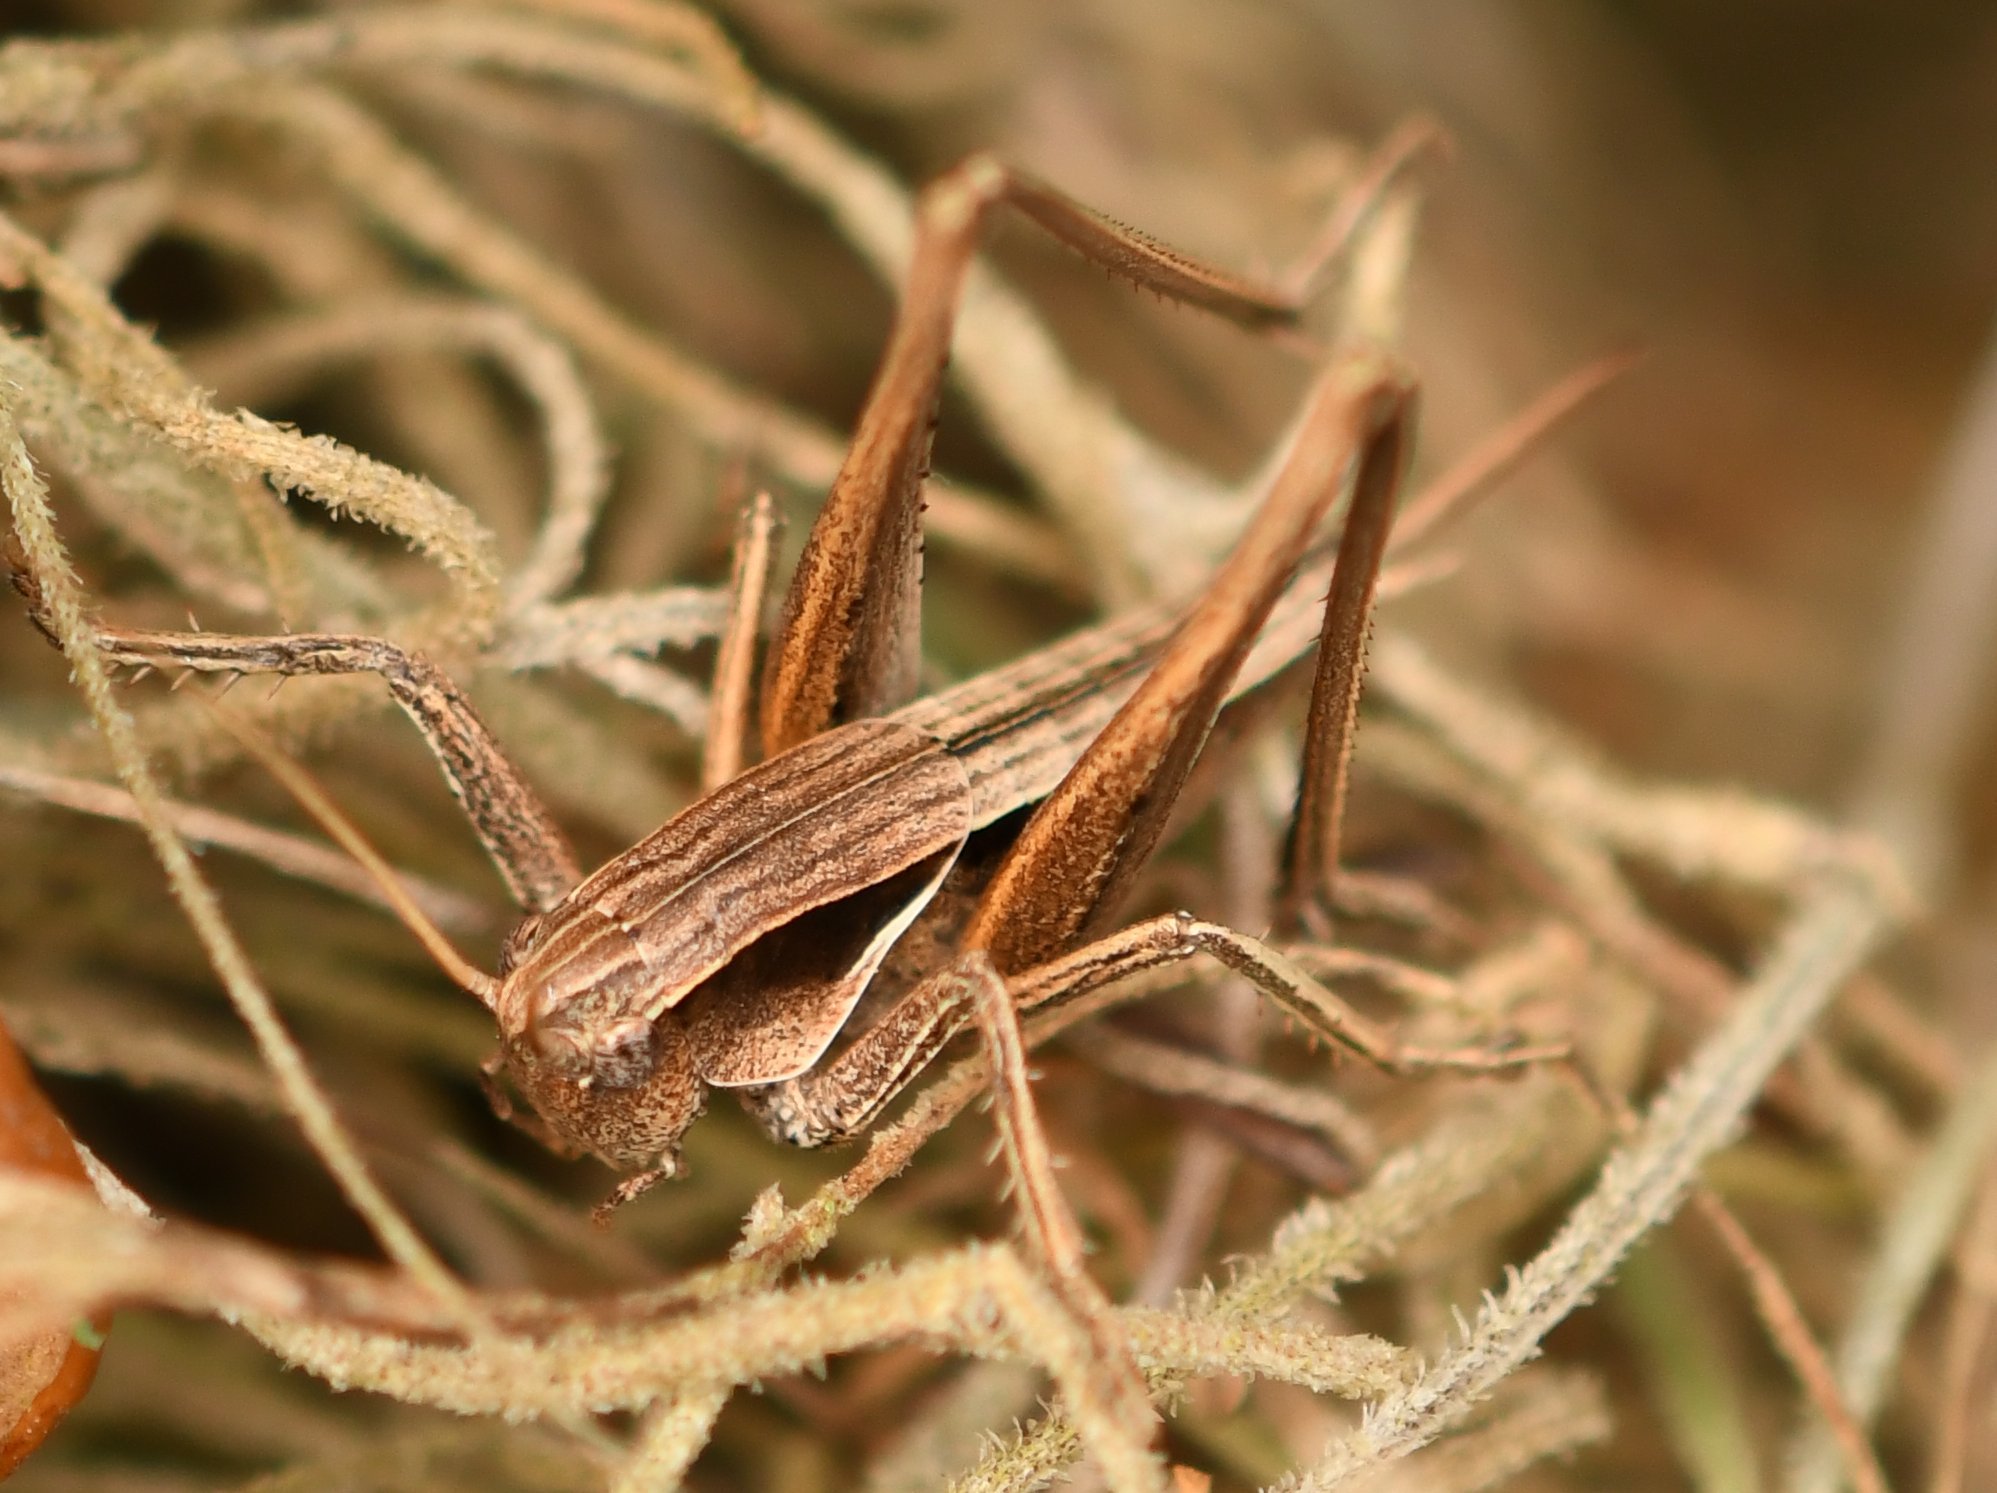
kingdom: Animalia
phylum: Arthropoda
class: Insecta
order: Orthoptera
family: Tettigoniidae
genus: Atlanticus
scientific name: Atlanticus glaber
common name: Smooth shield-bearer
